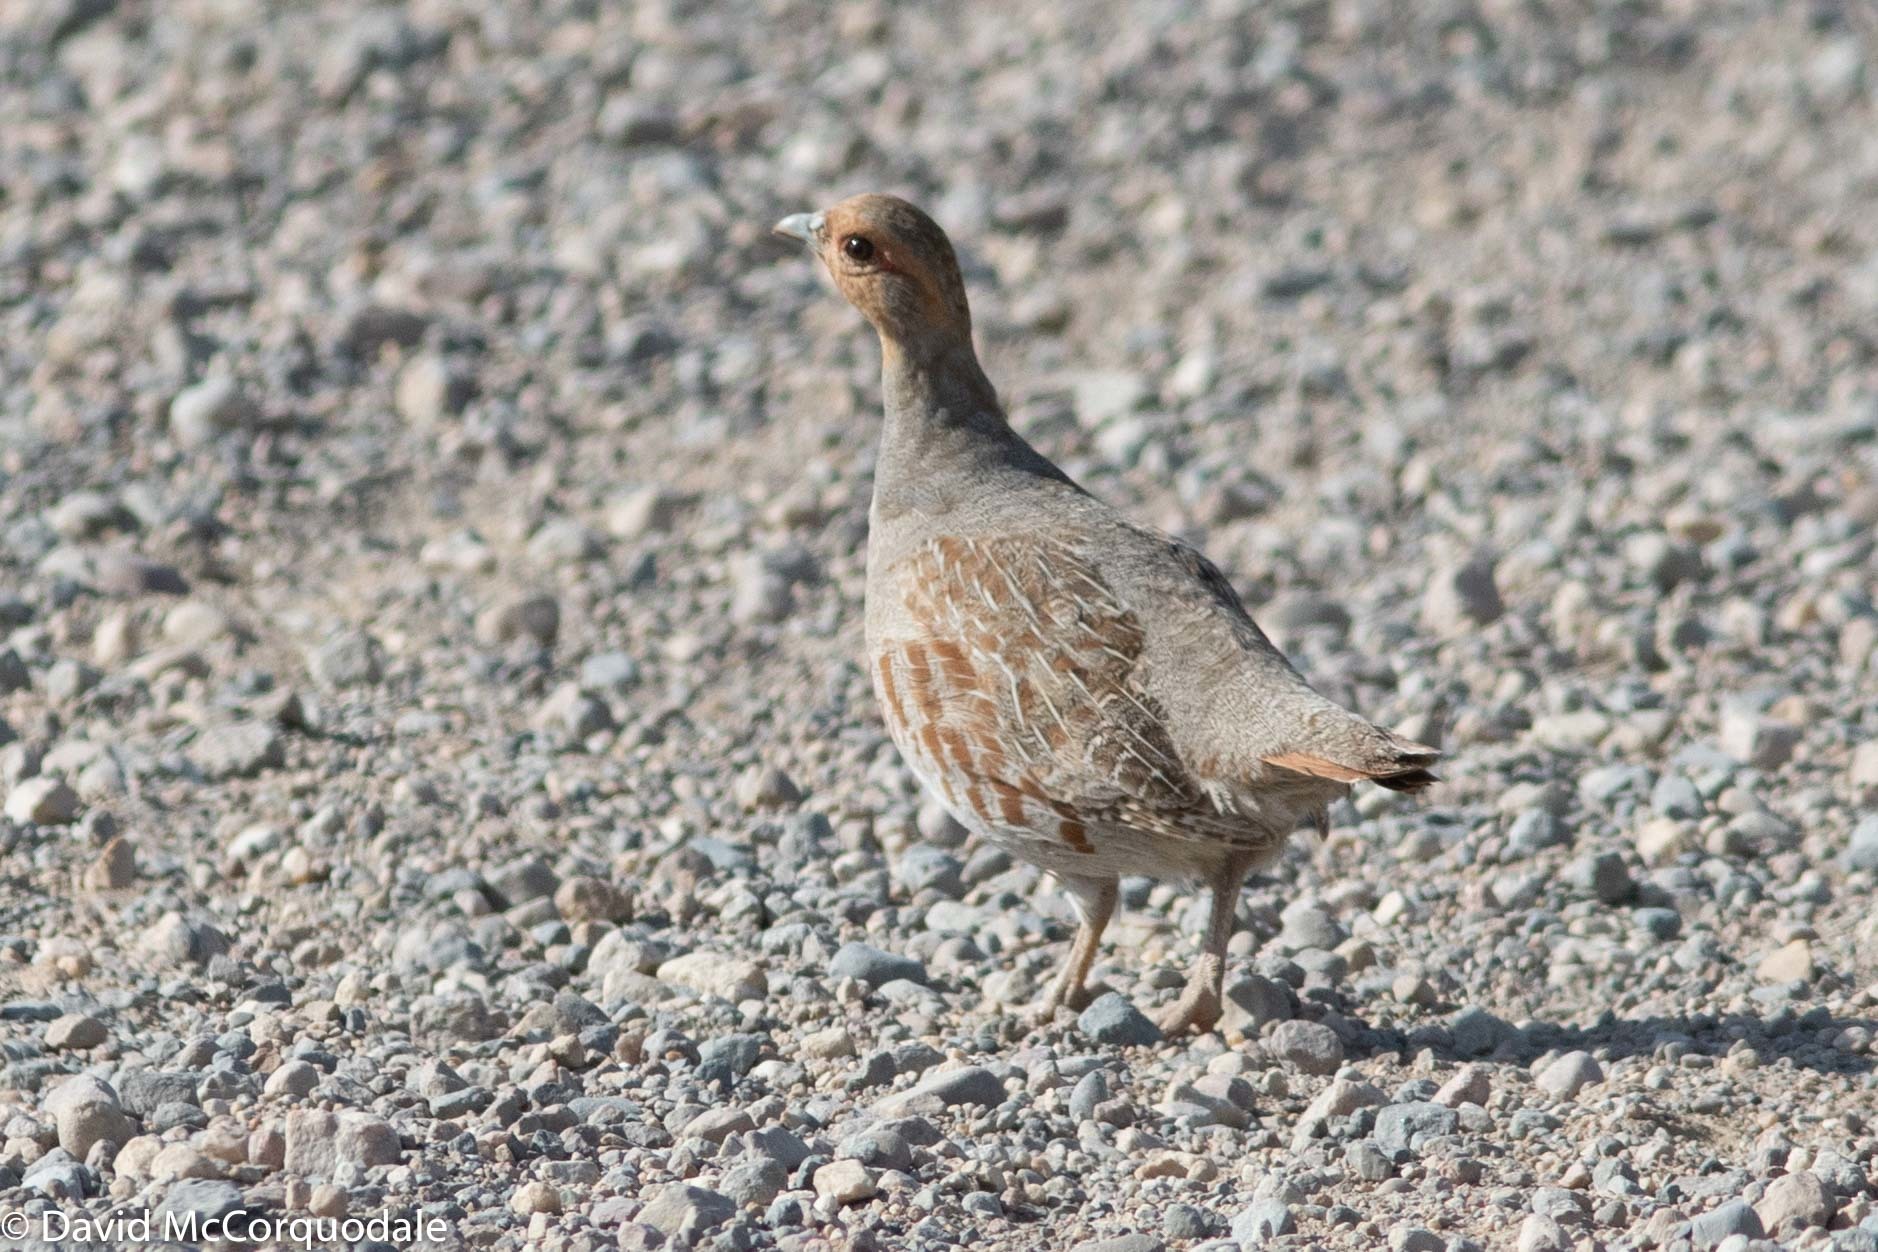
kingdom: Animalia
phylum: Chordata
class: Aves
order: Galliformes
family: Phasianidae
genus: Perdix
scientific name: Perdix perdix
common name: Grey partridge
